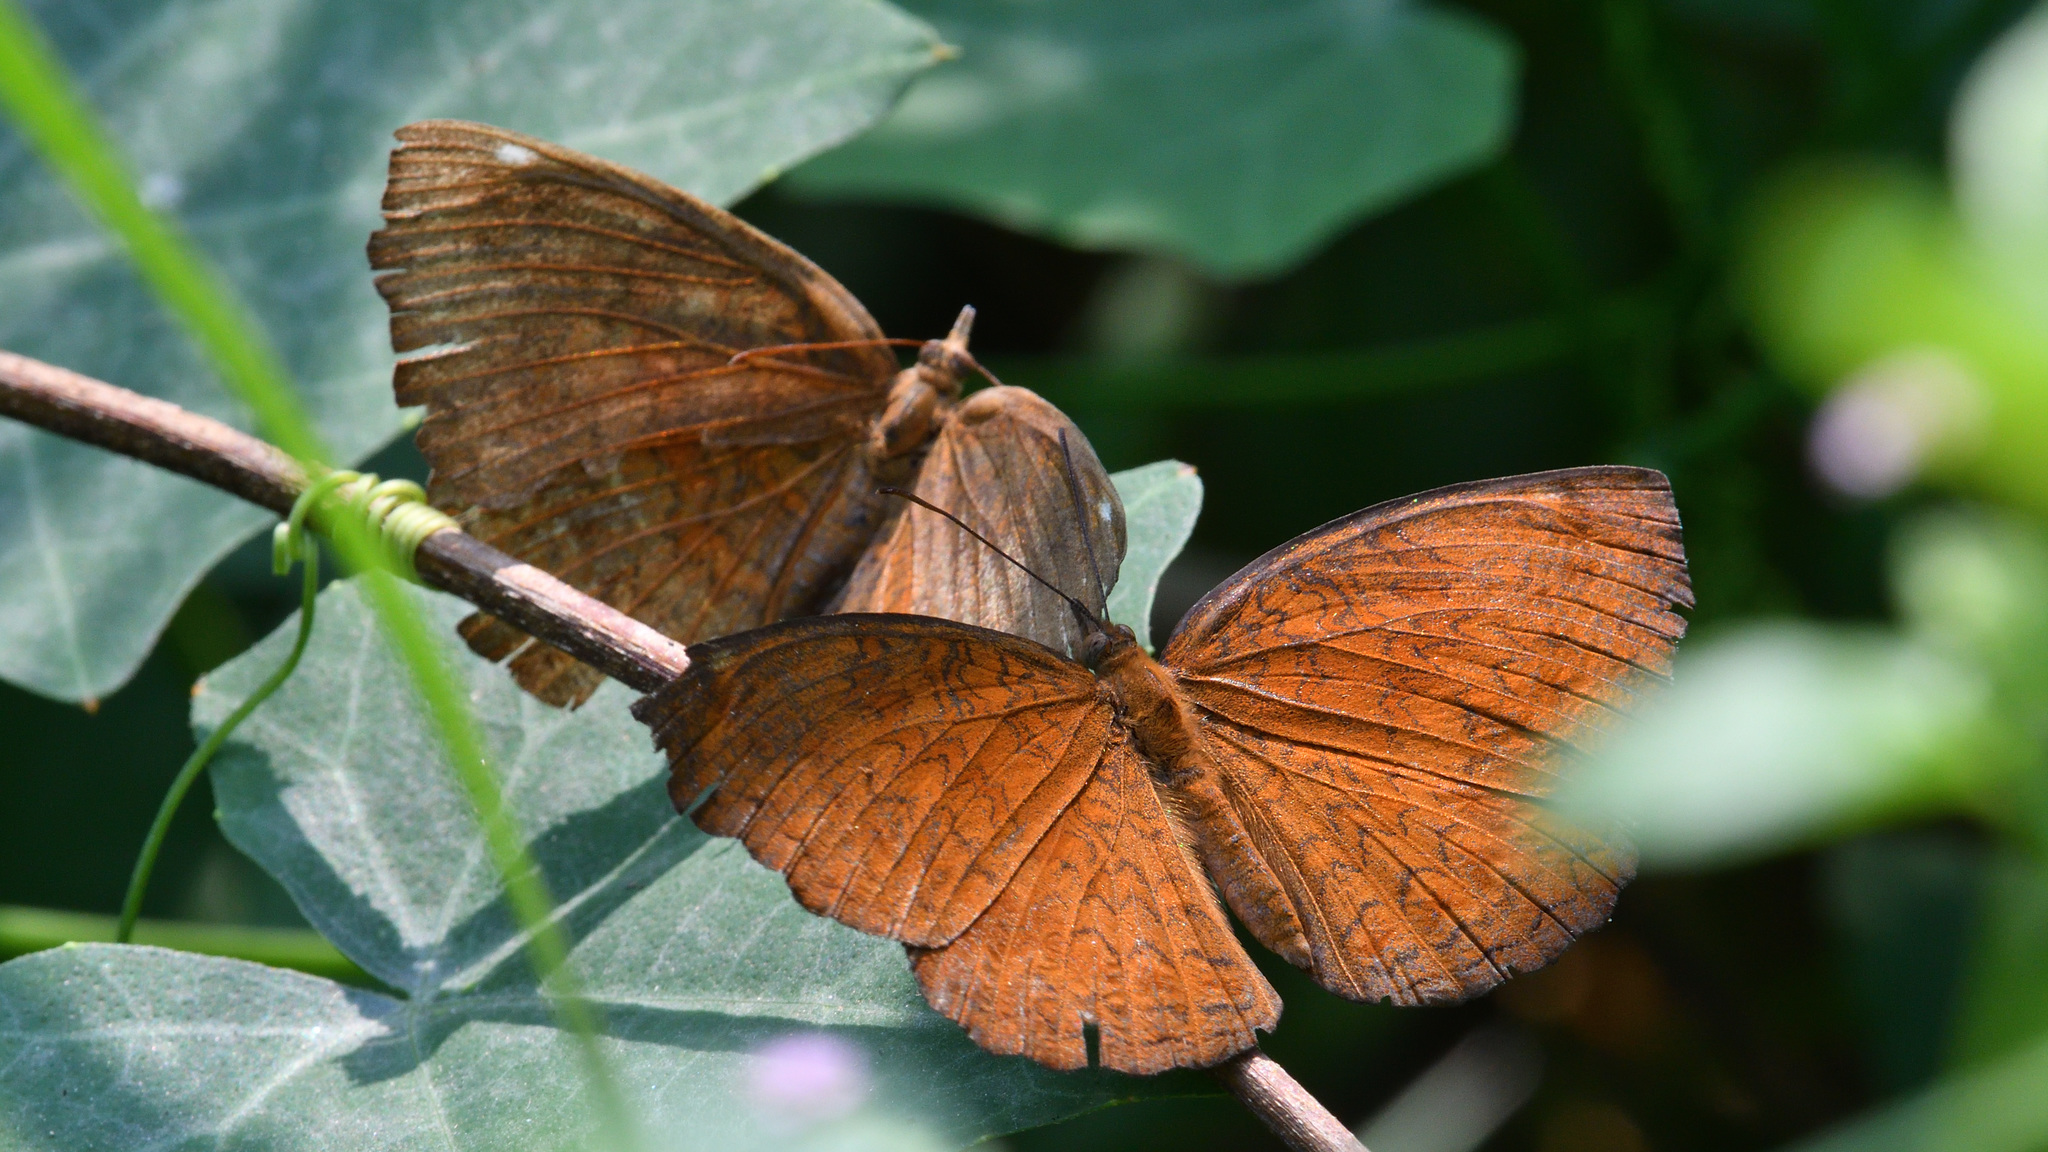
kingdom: Animalia
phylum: Arthropoda
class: Insecta
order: Lepidoptera
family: Nymphalidae
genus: Ariadne
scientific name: Ariadne merione
